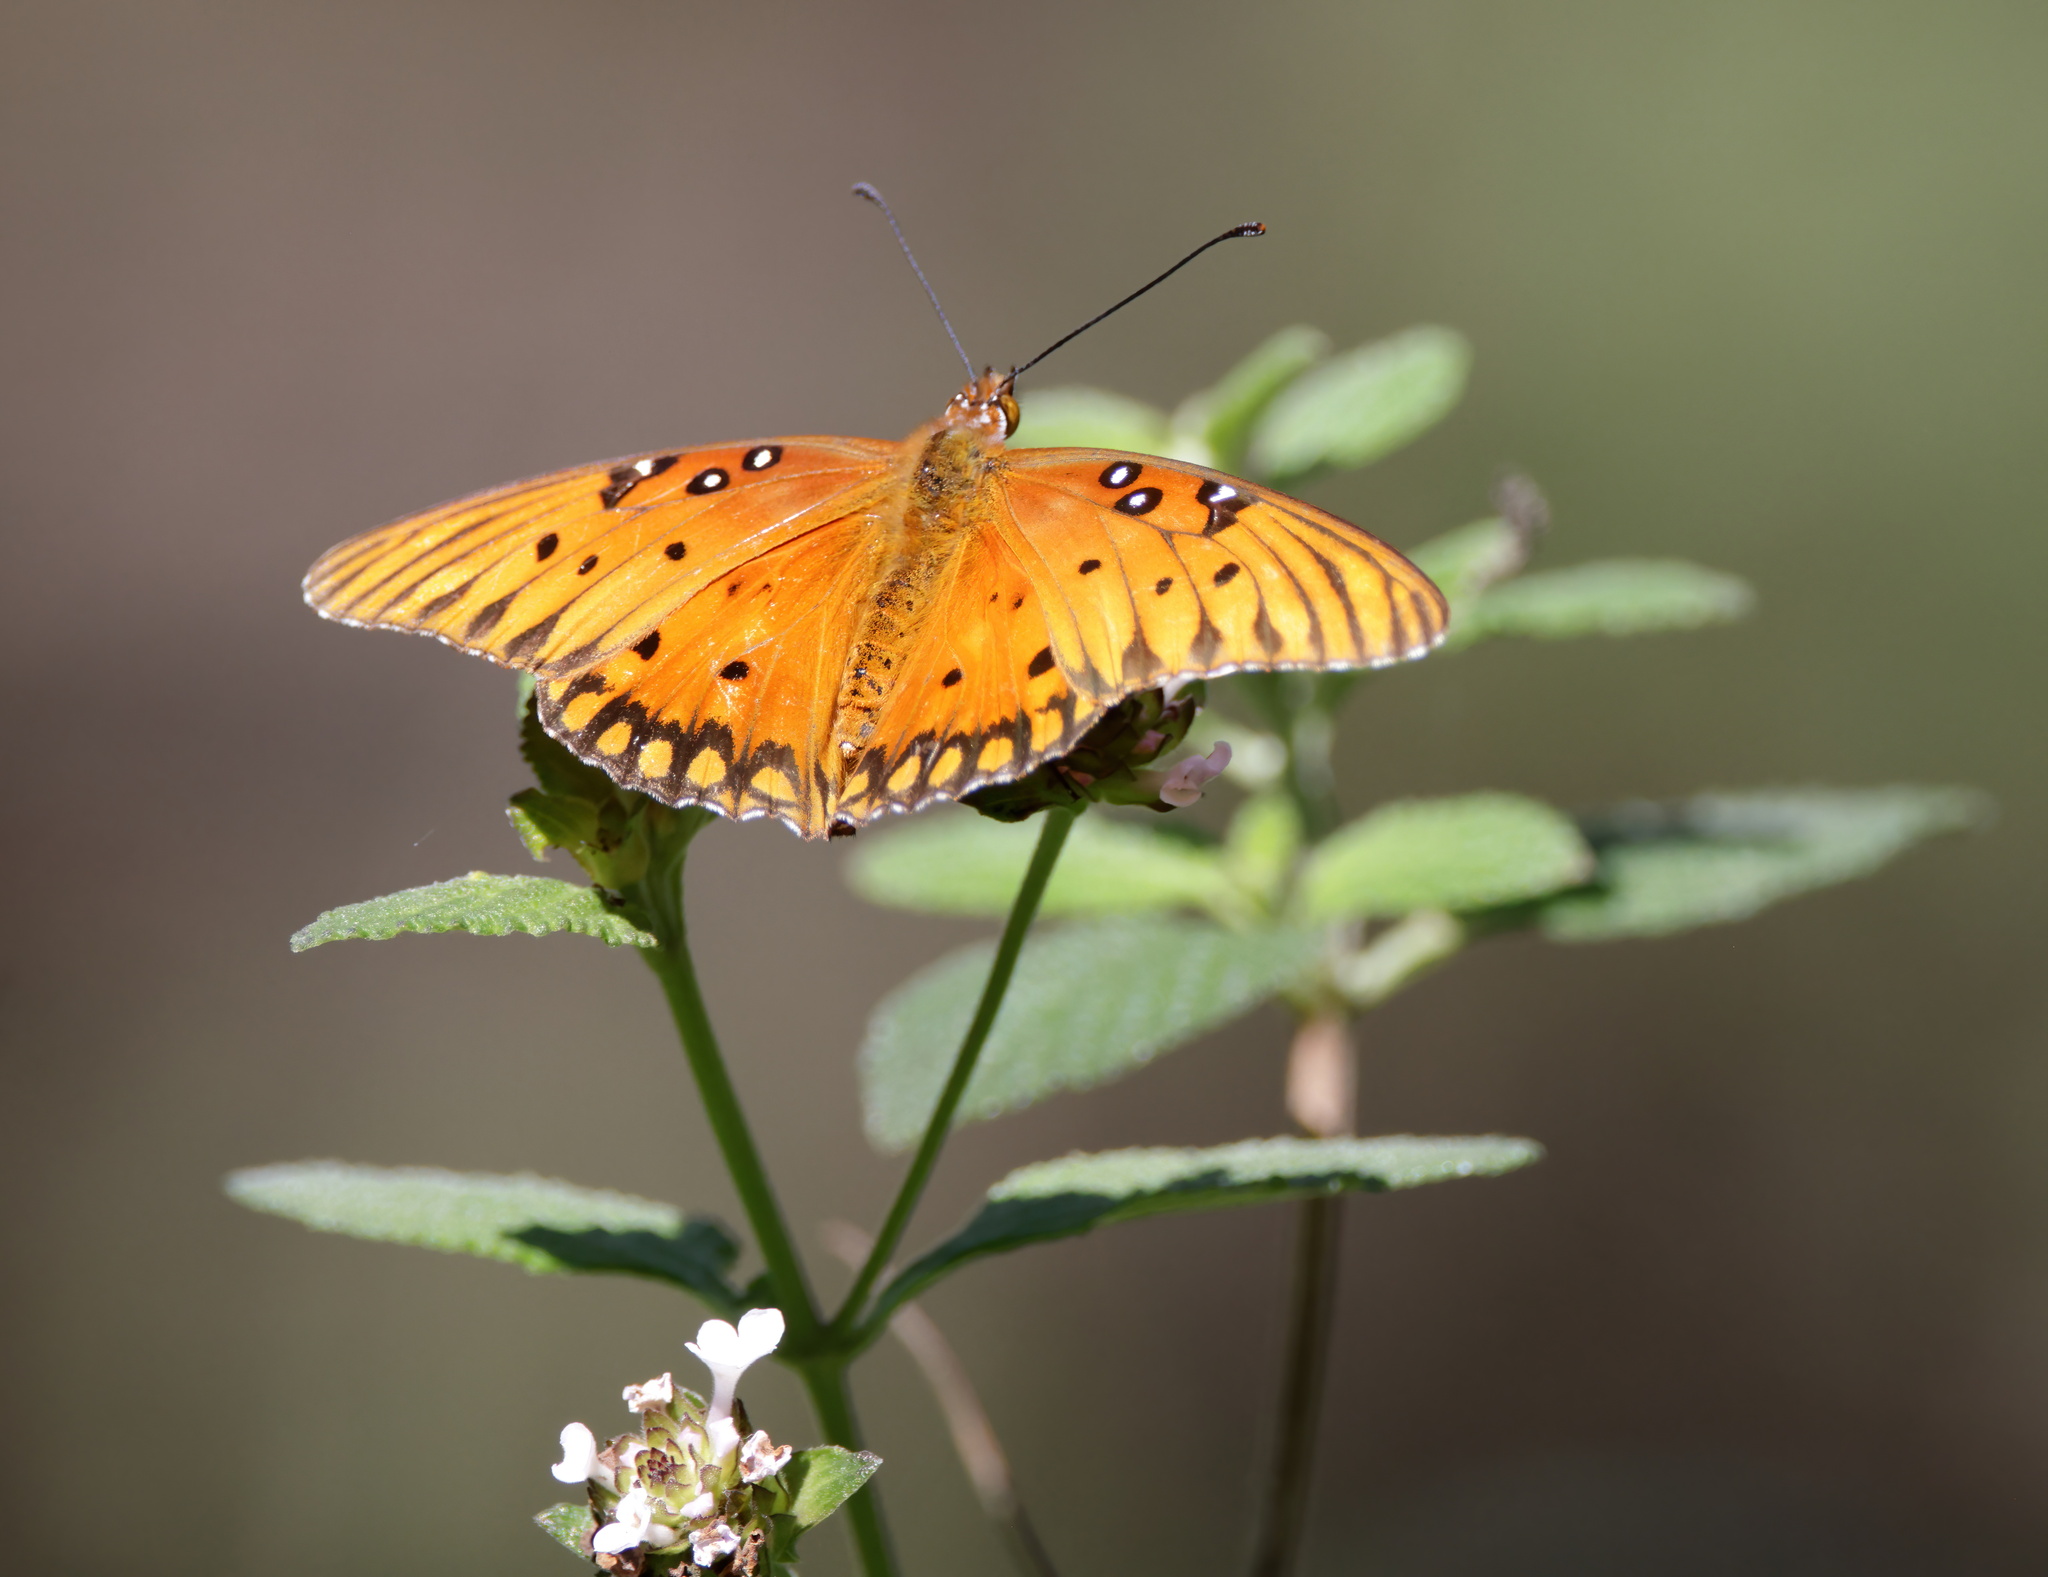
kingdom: Animalia
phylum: Arthropoda
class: Insecta
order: Lepidoptera
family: Nymphalidae
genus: Dione
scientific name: Dione vanillae
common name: Gulf fritillary
